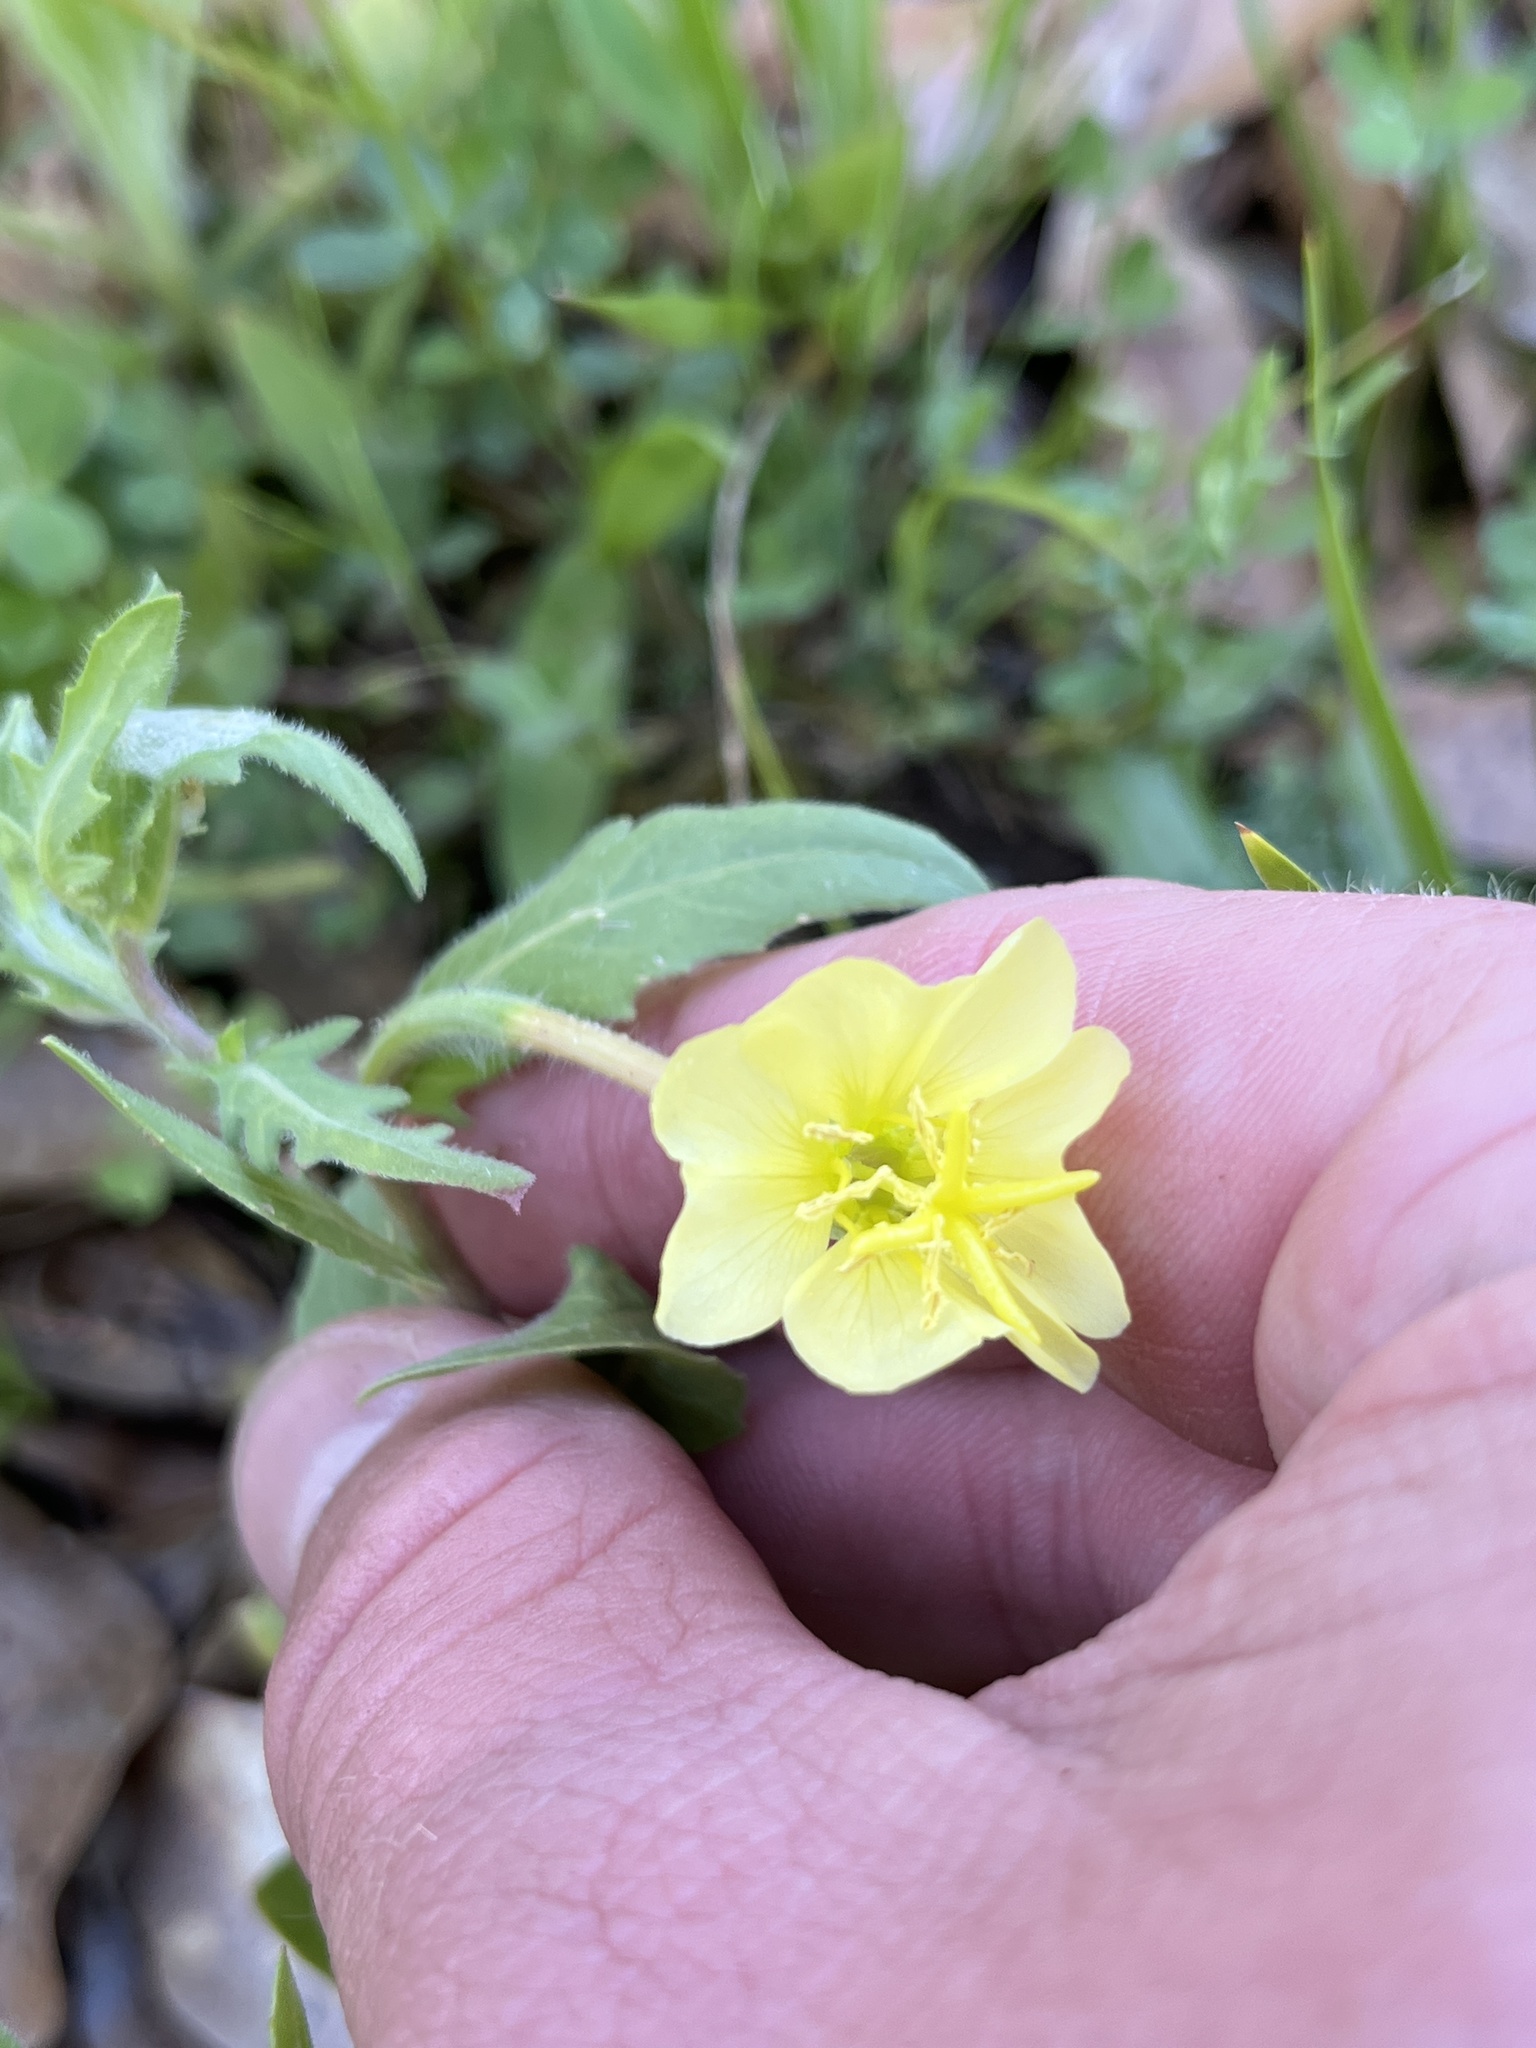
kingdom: Plantae
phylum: Tracheophyta
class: Magnoliopsida
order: Myrtales
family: Onagraceae
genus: Oenothera
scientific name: Oenothera laciniata
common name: Cut-leaved evening-primrose
